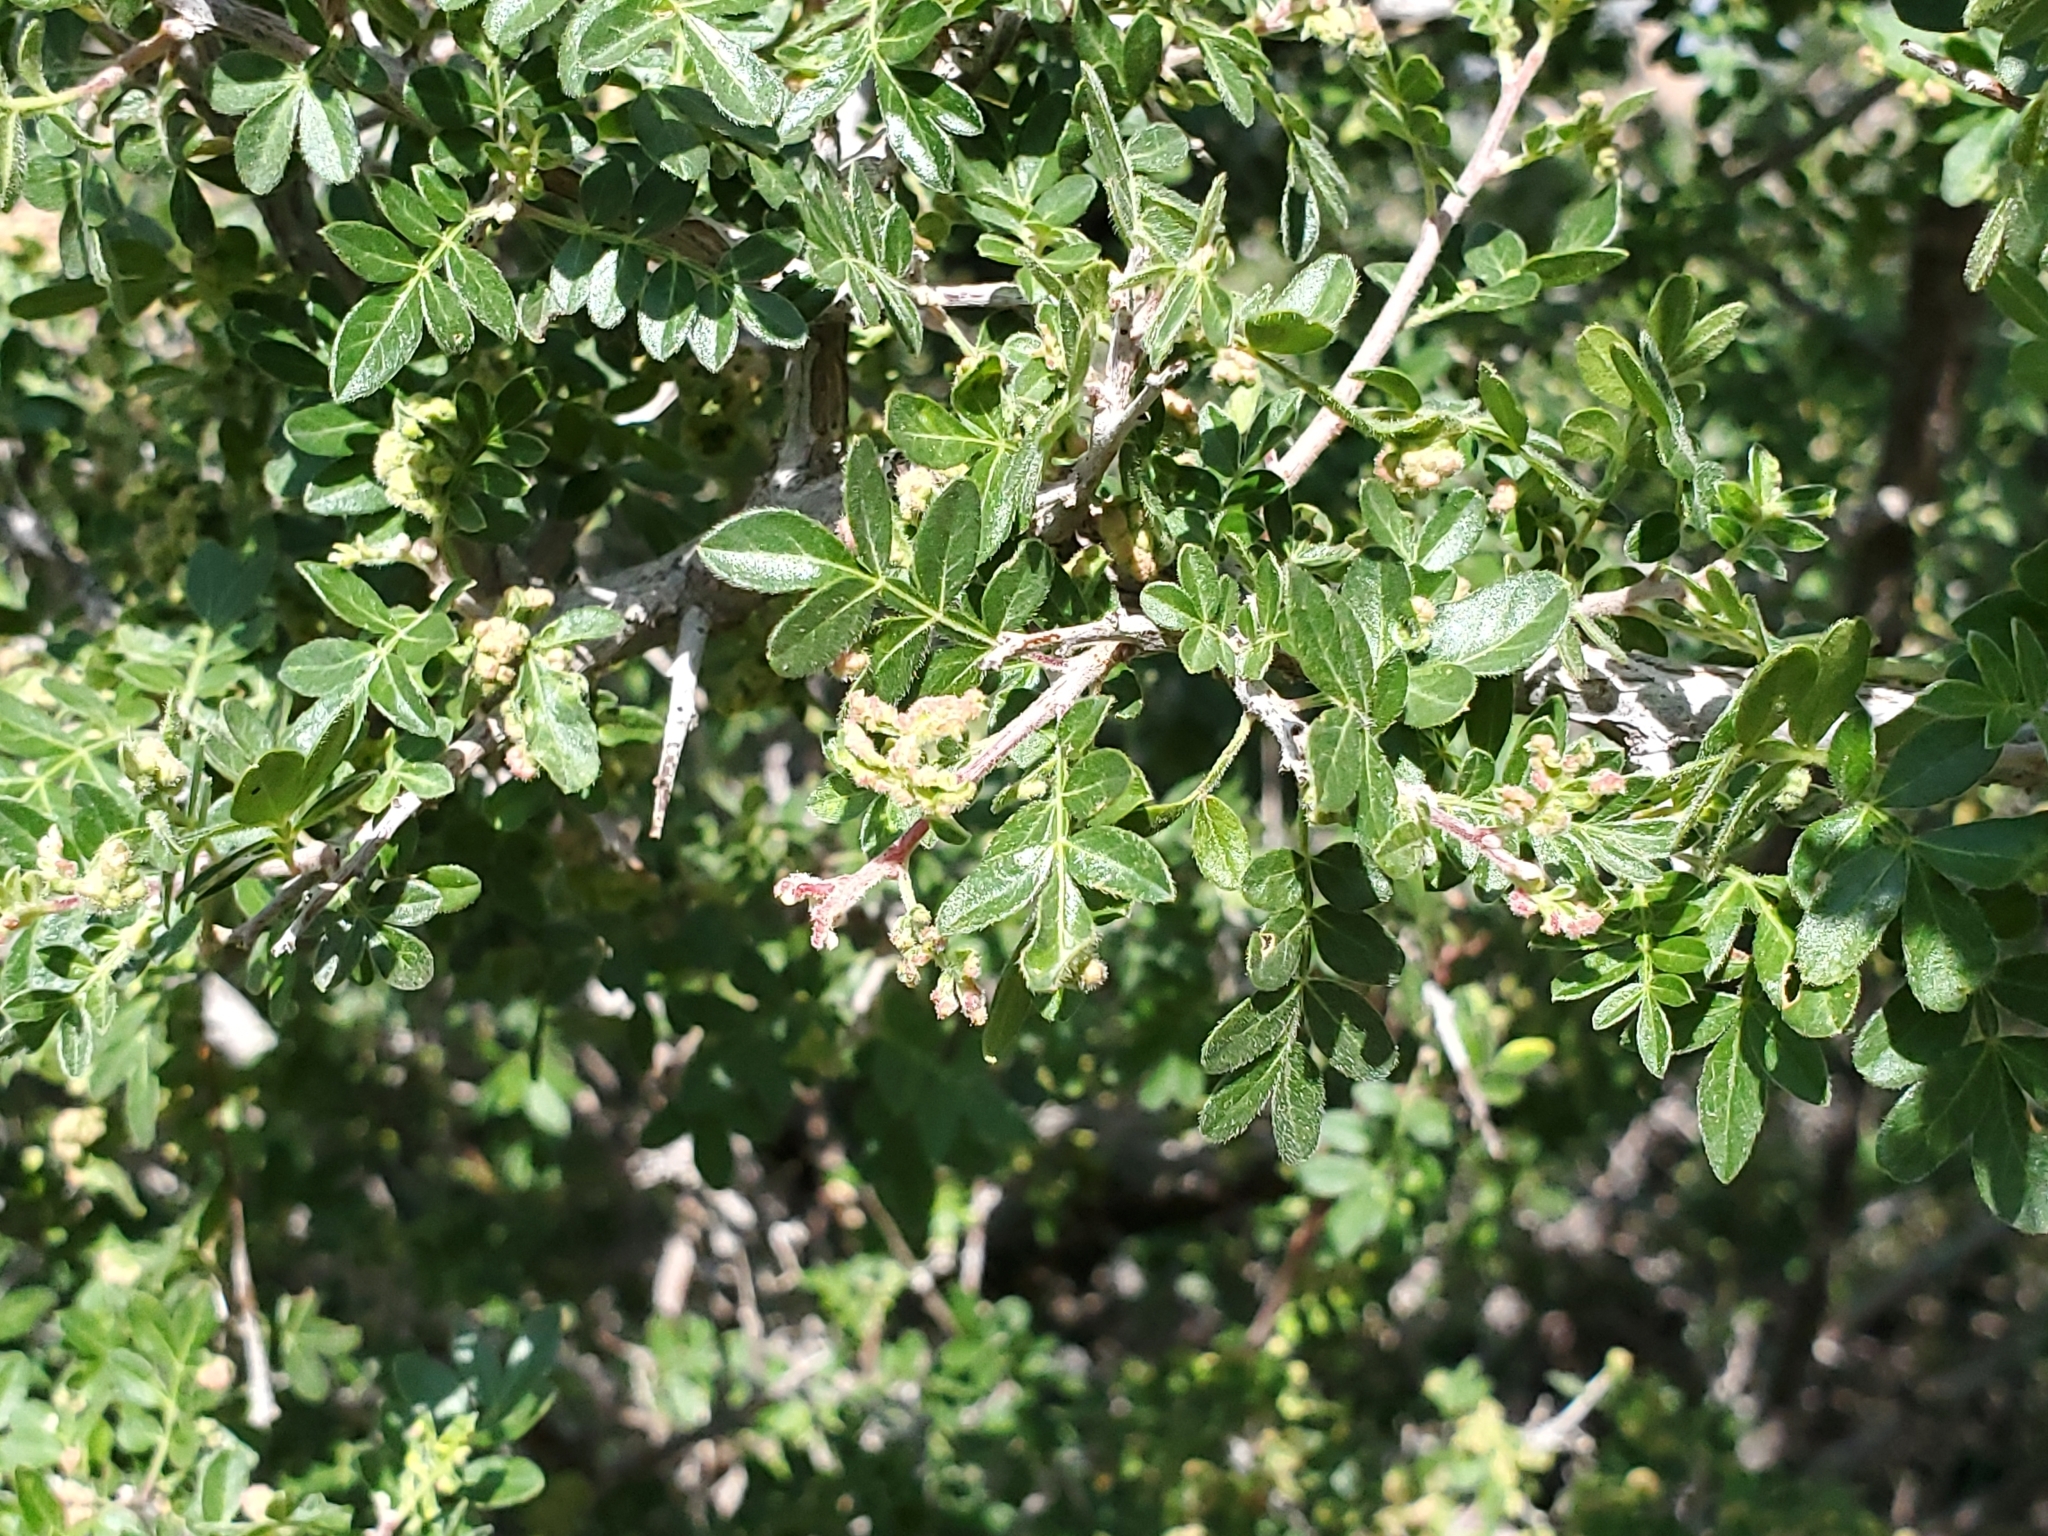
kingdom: Plantae
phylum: Tracheophyta
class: Magnoliopsida
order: Sapindales
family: Anacardiaceae
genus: Rhus
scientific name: Rhus microphylla
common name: Desert sumac
